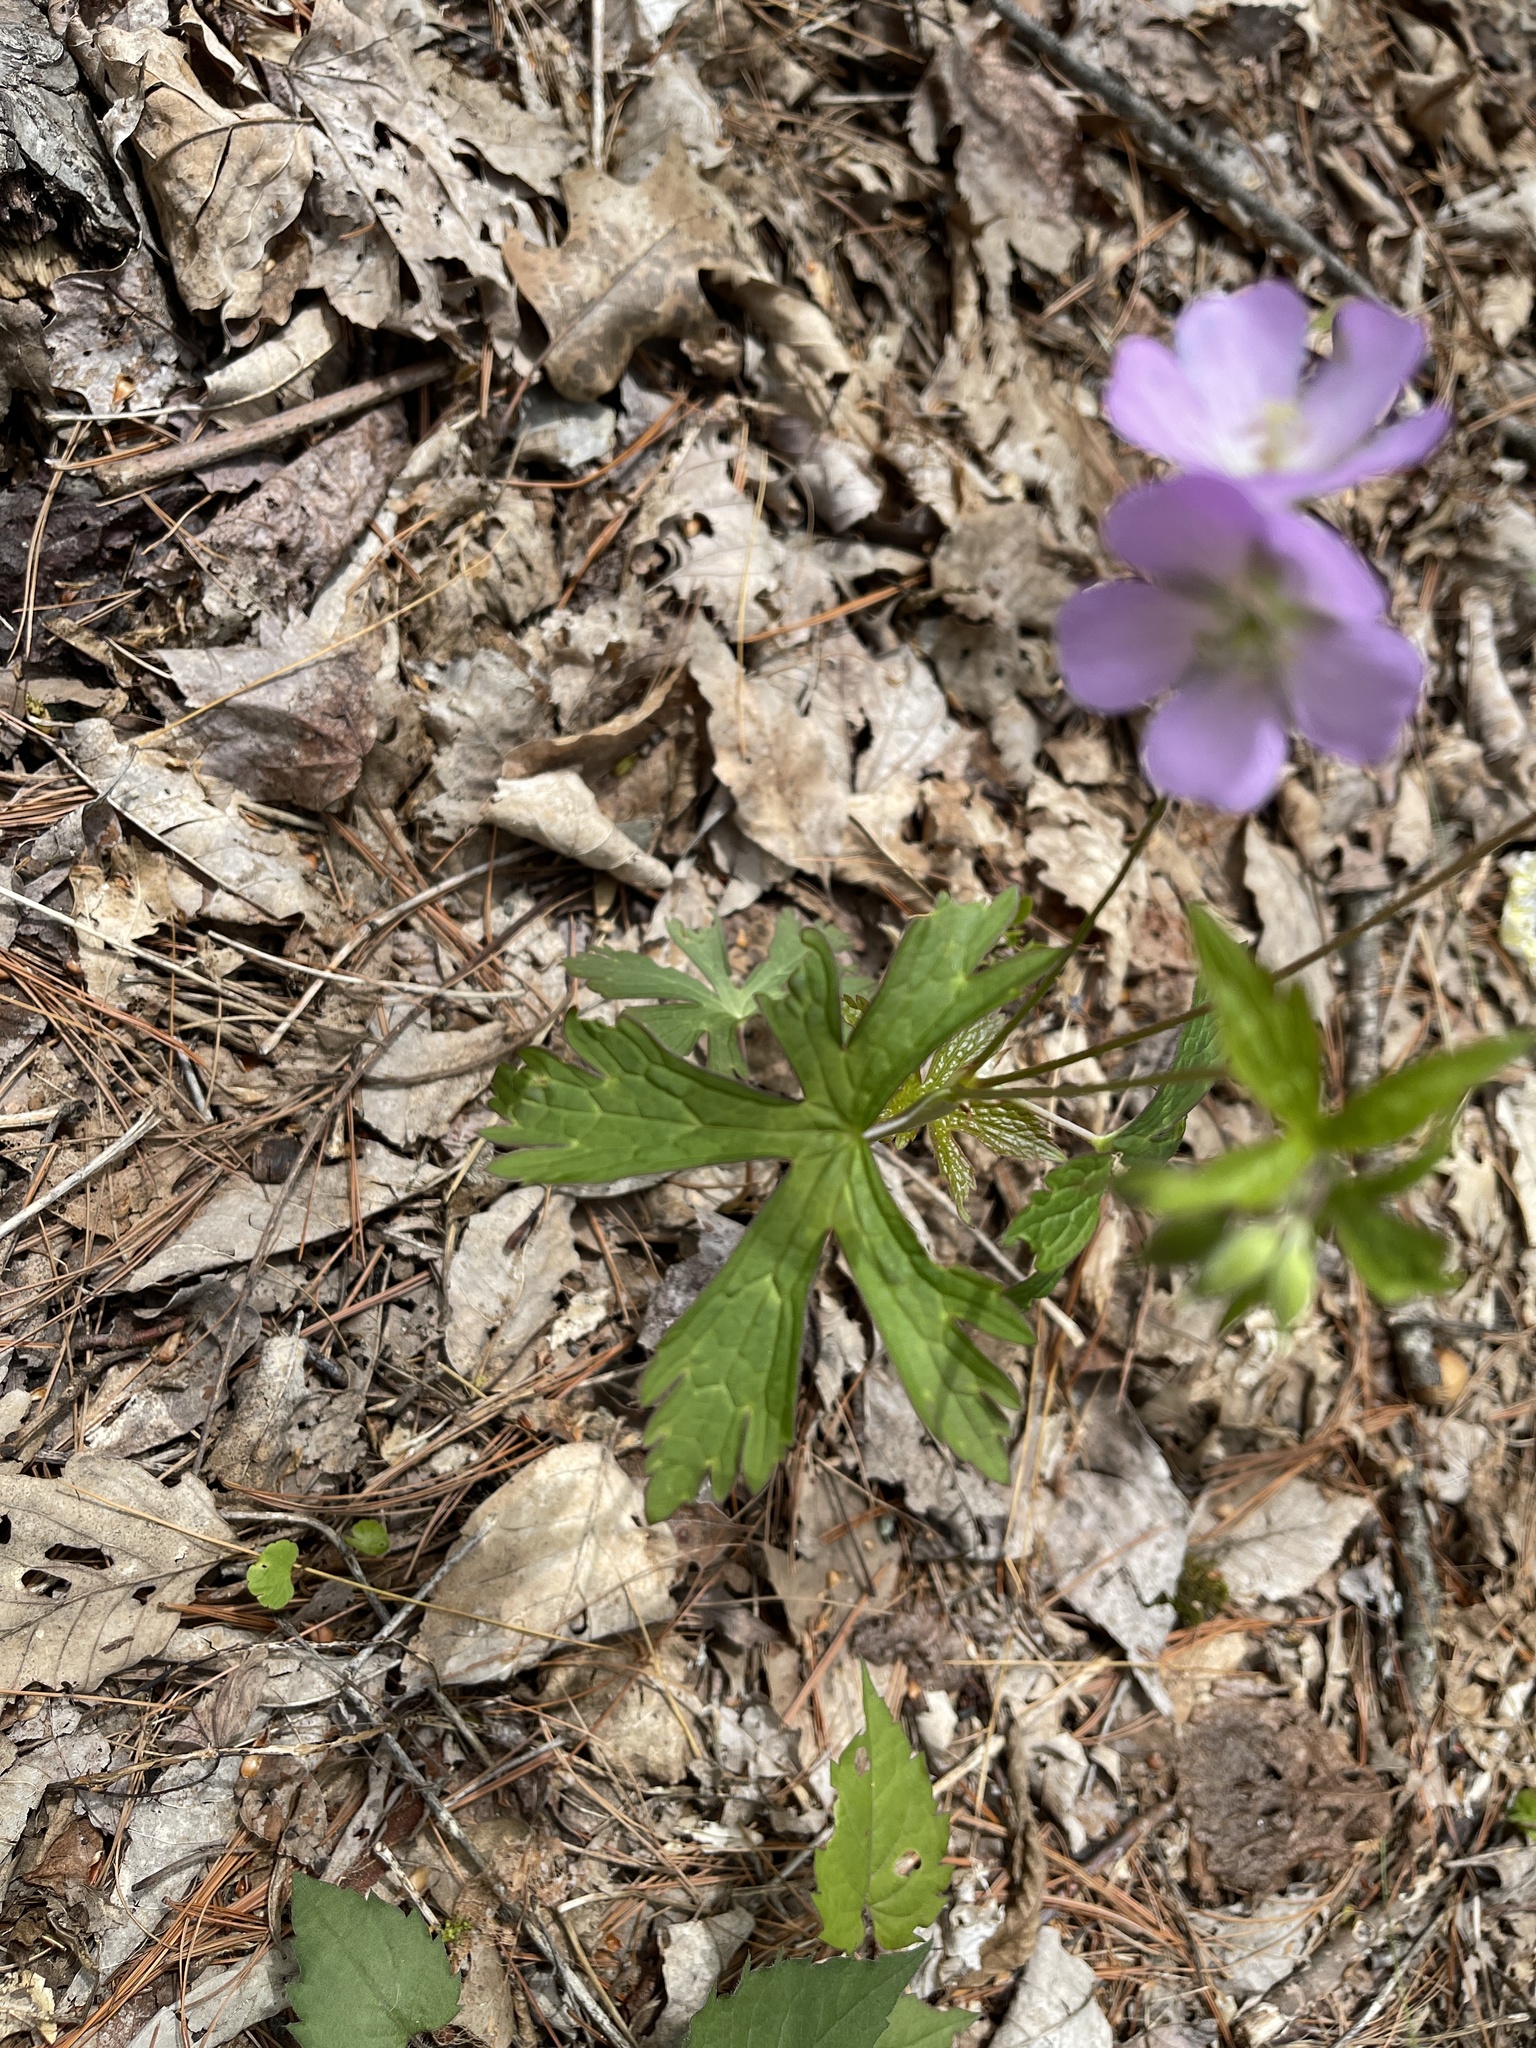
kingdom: Plantae
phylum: Tracheophyta
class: Magnoliopsida
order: Geraniales
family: Geraniaceae
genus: Geranium
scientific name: Geranium maculatum
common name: Spotted geranium
